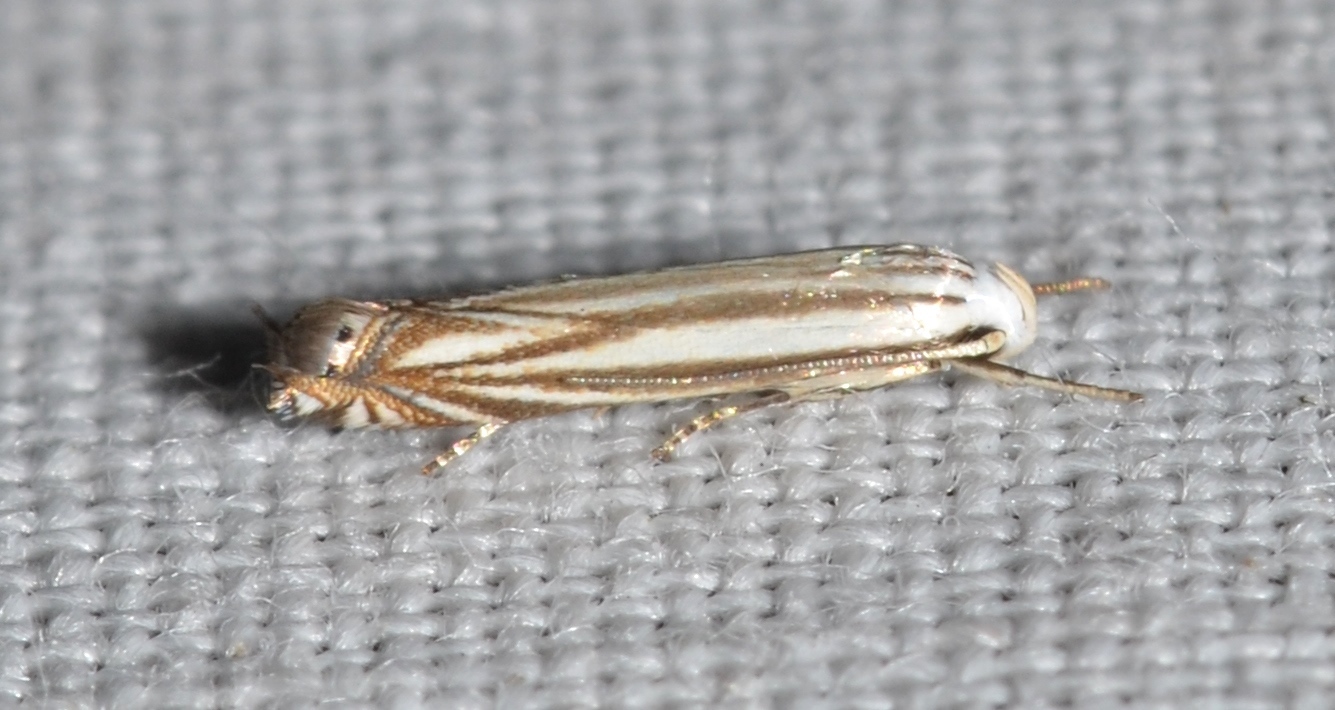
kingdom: Animalia
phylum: Arthropoda
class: Insecta
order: Lepidoptera
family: Gelechiidae
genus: Polyhymno
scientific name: Polyhymno luteostrigella
